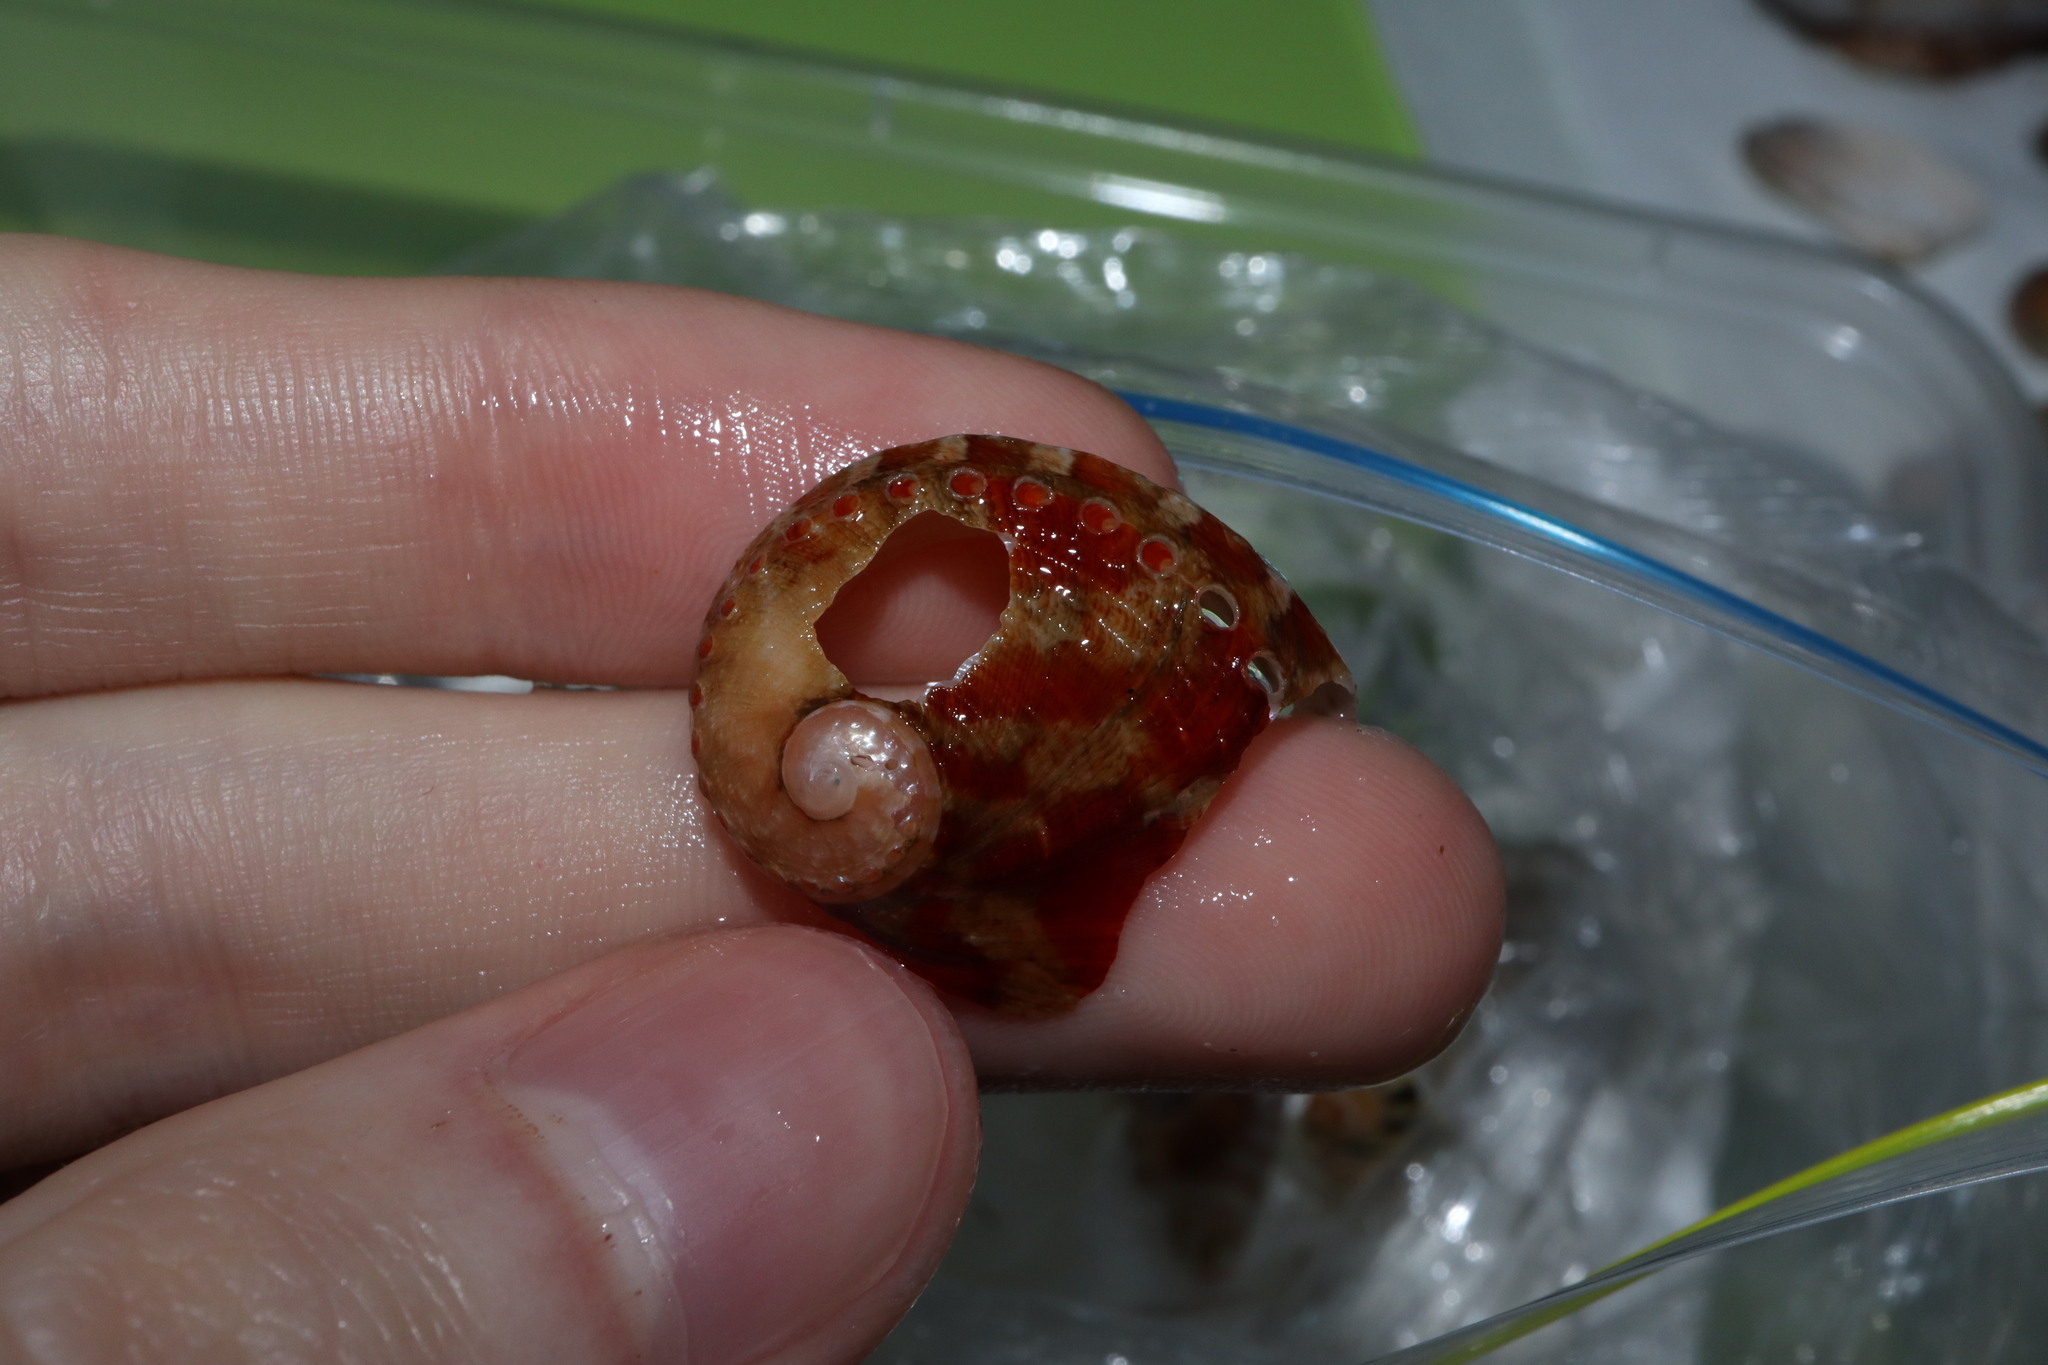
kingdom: Animalia
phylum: Mollusca
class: Gastropoda
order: Lepetellida
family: Haliotidae
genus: Haliotis
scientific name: Haliotis coccoradiata
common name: Reddish-rayed abalone
